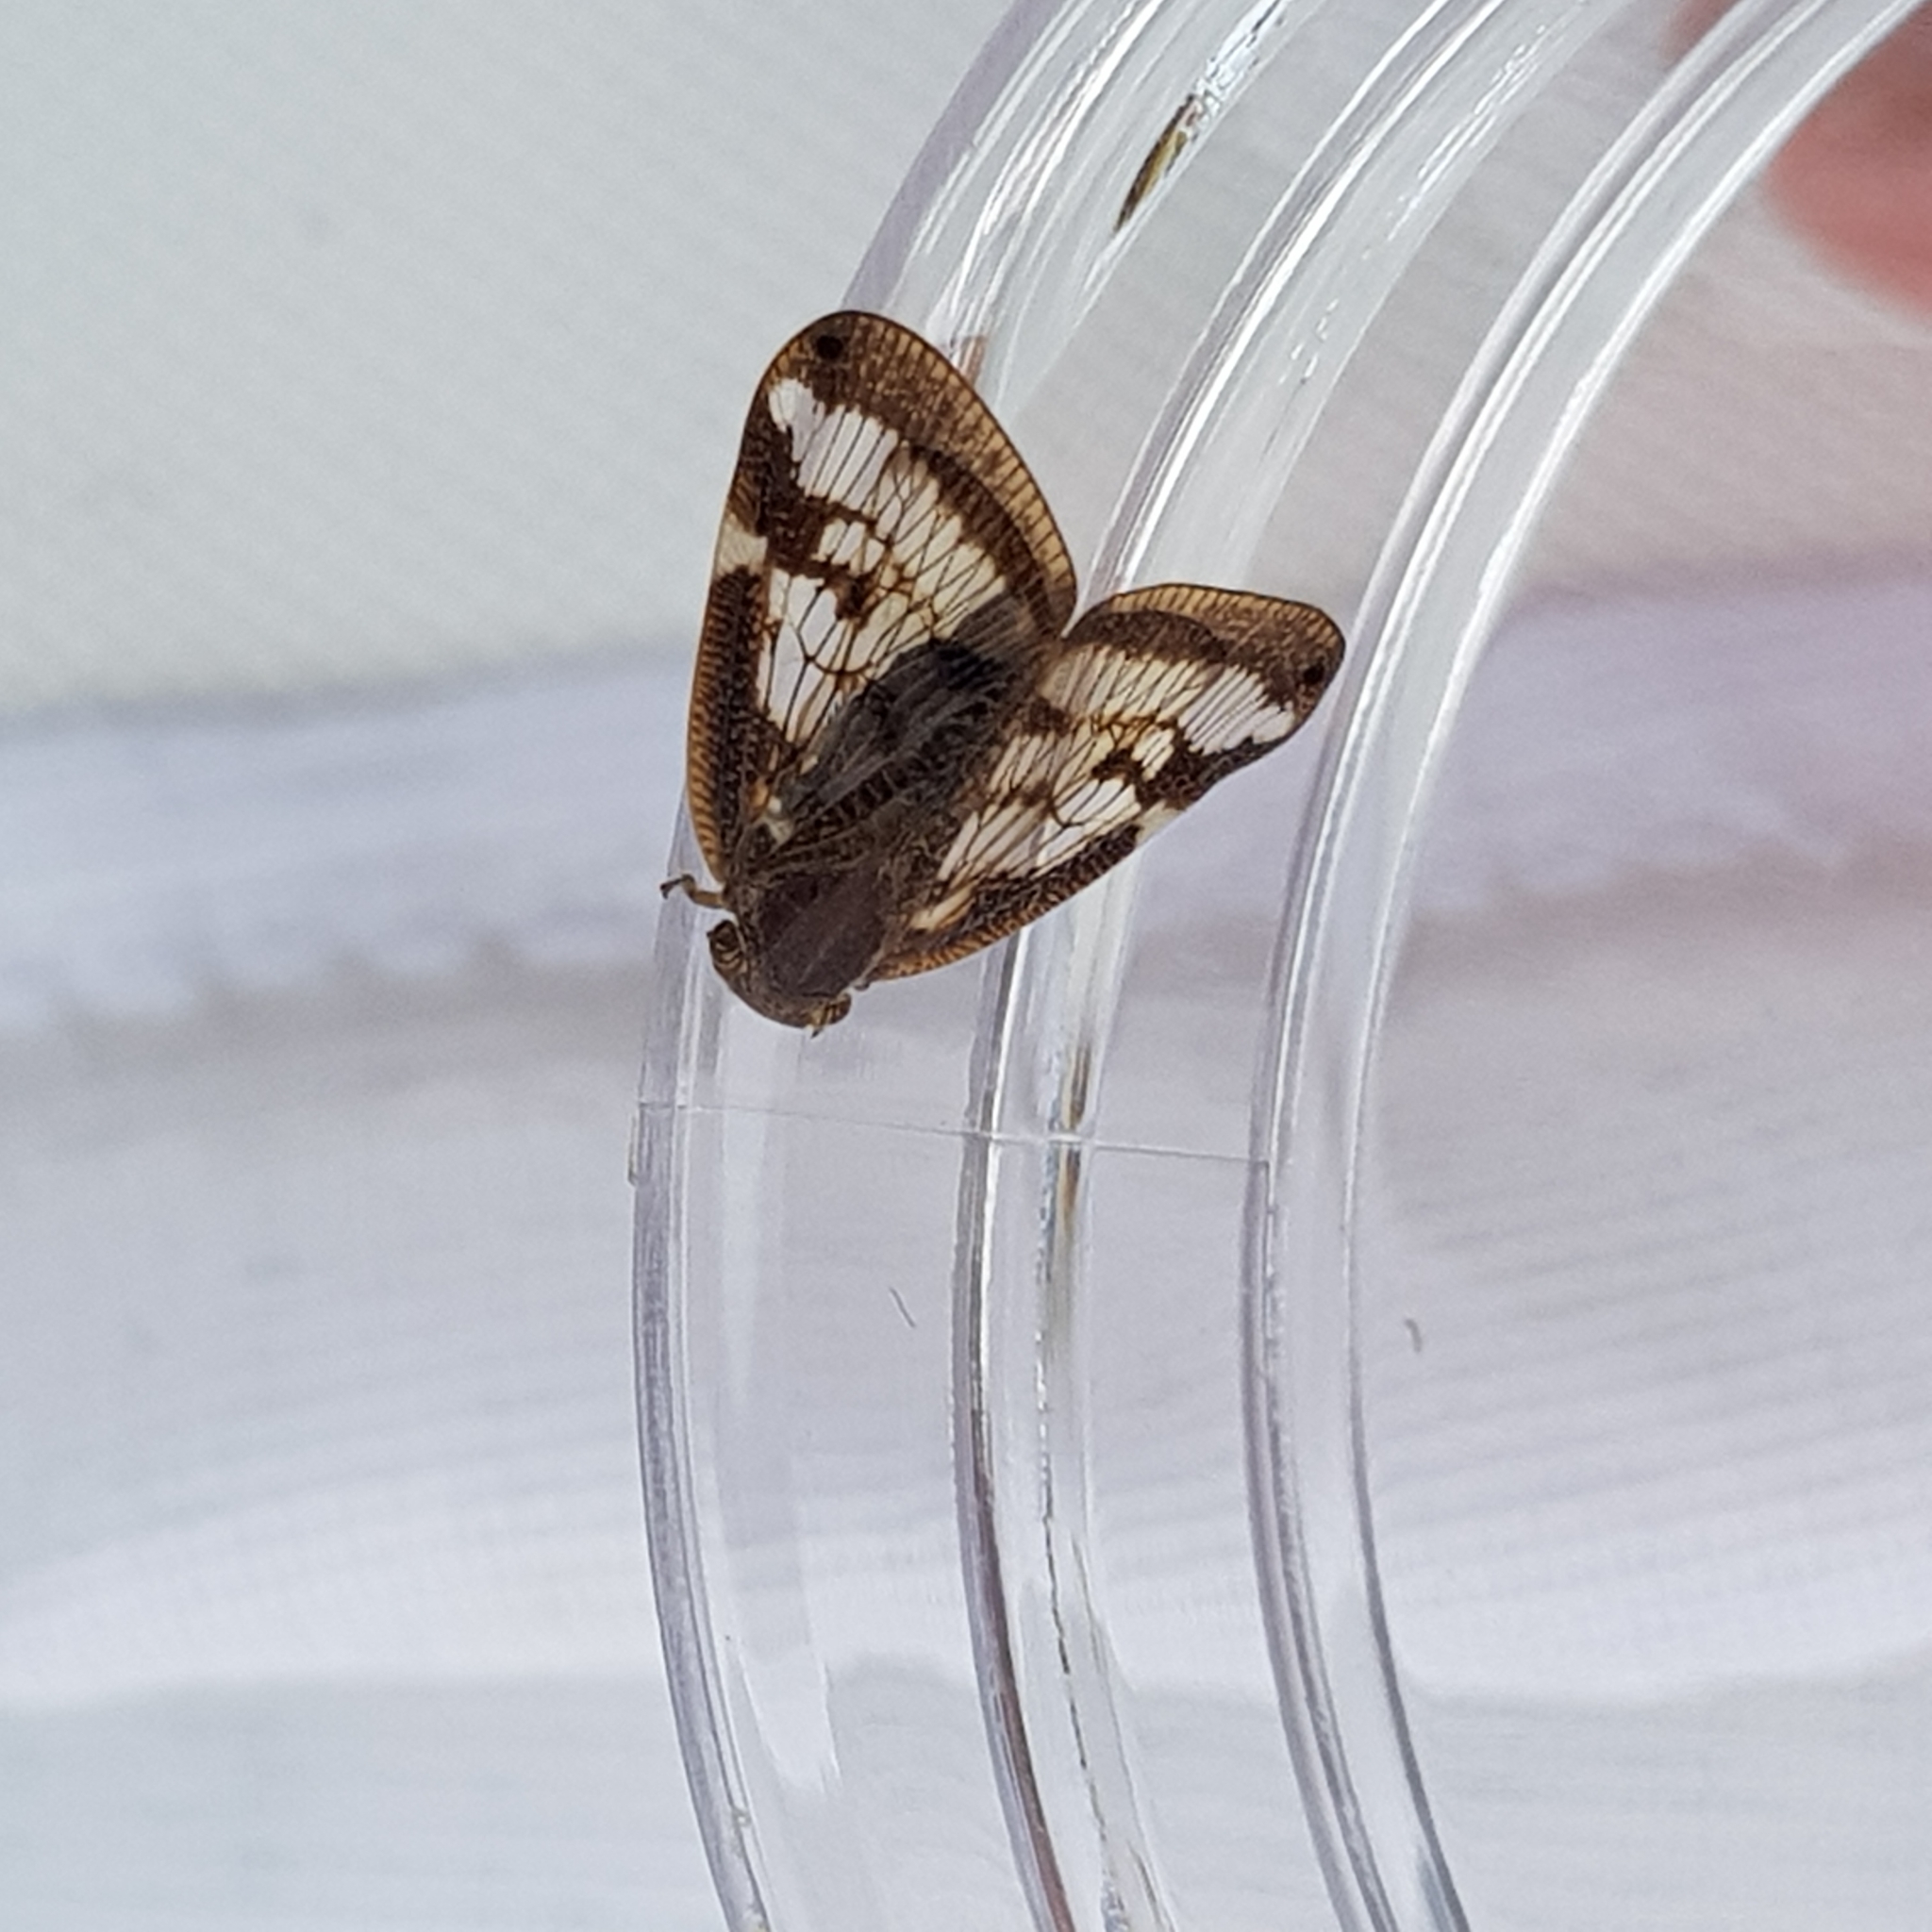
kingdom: Animalia
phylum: Arthropoda
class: Insecta
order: Hemiptera
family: Ricaniidae
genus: Scolypopa
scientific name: Scolypopa australis
